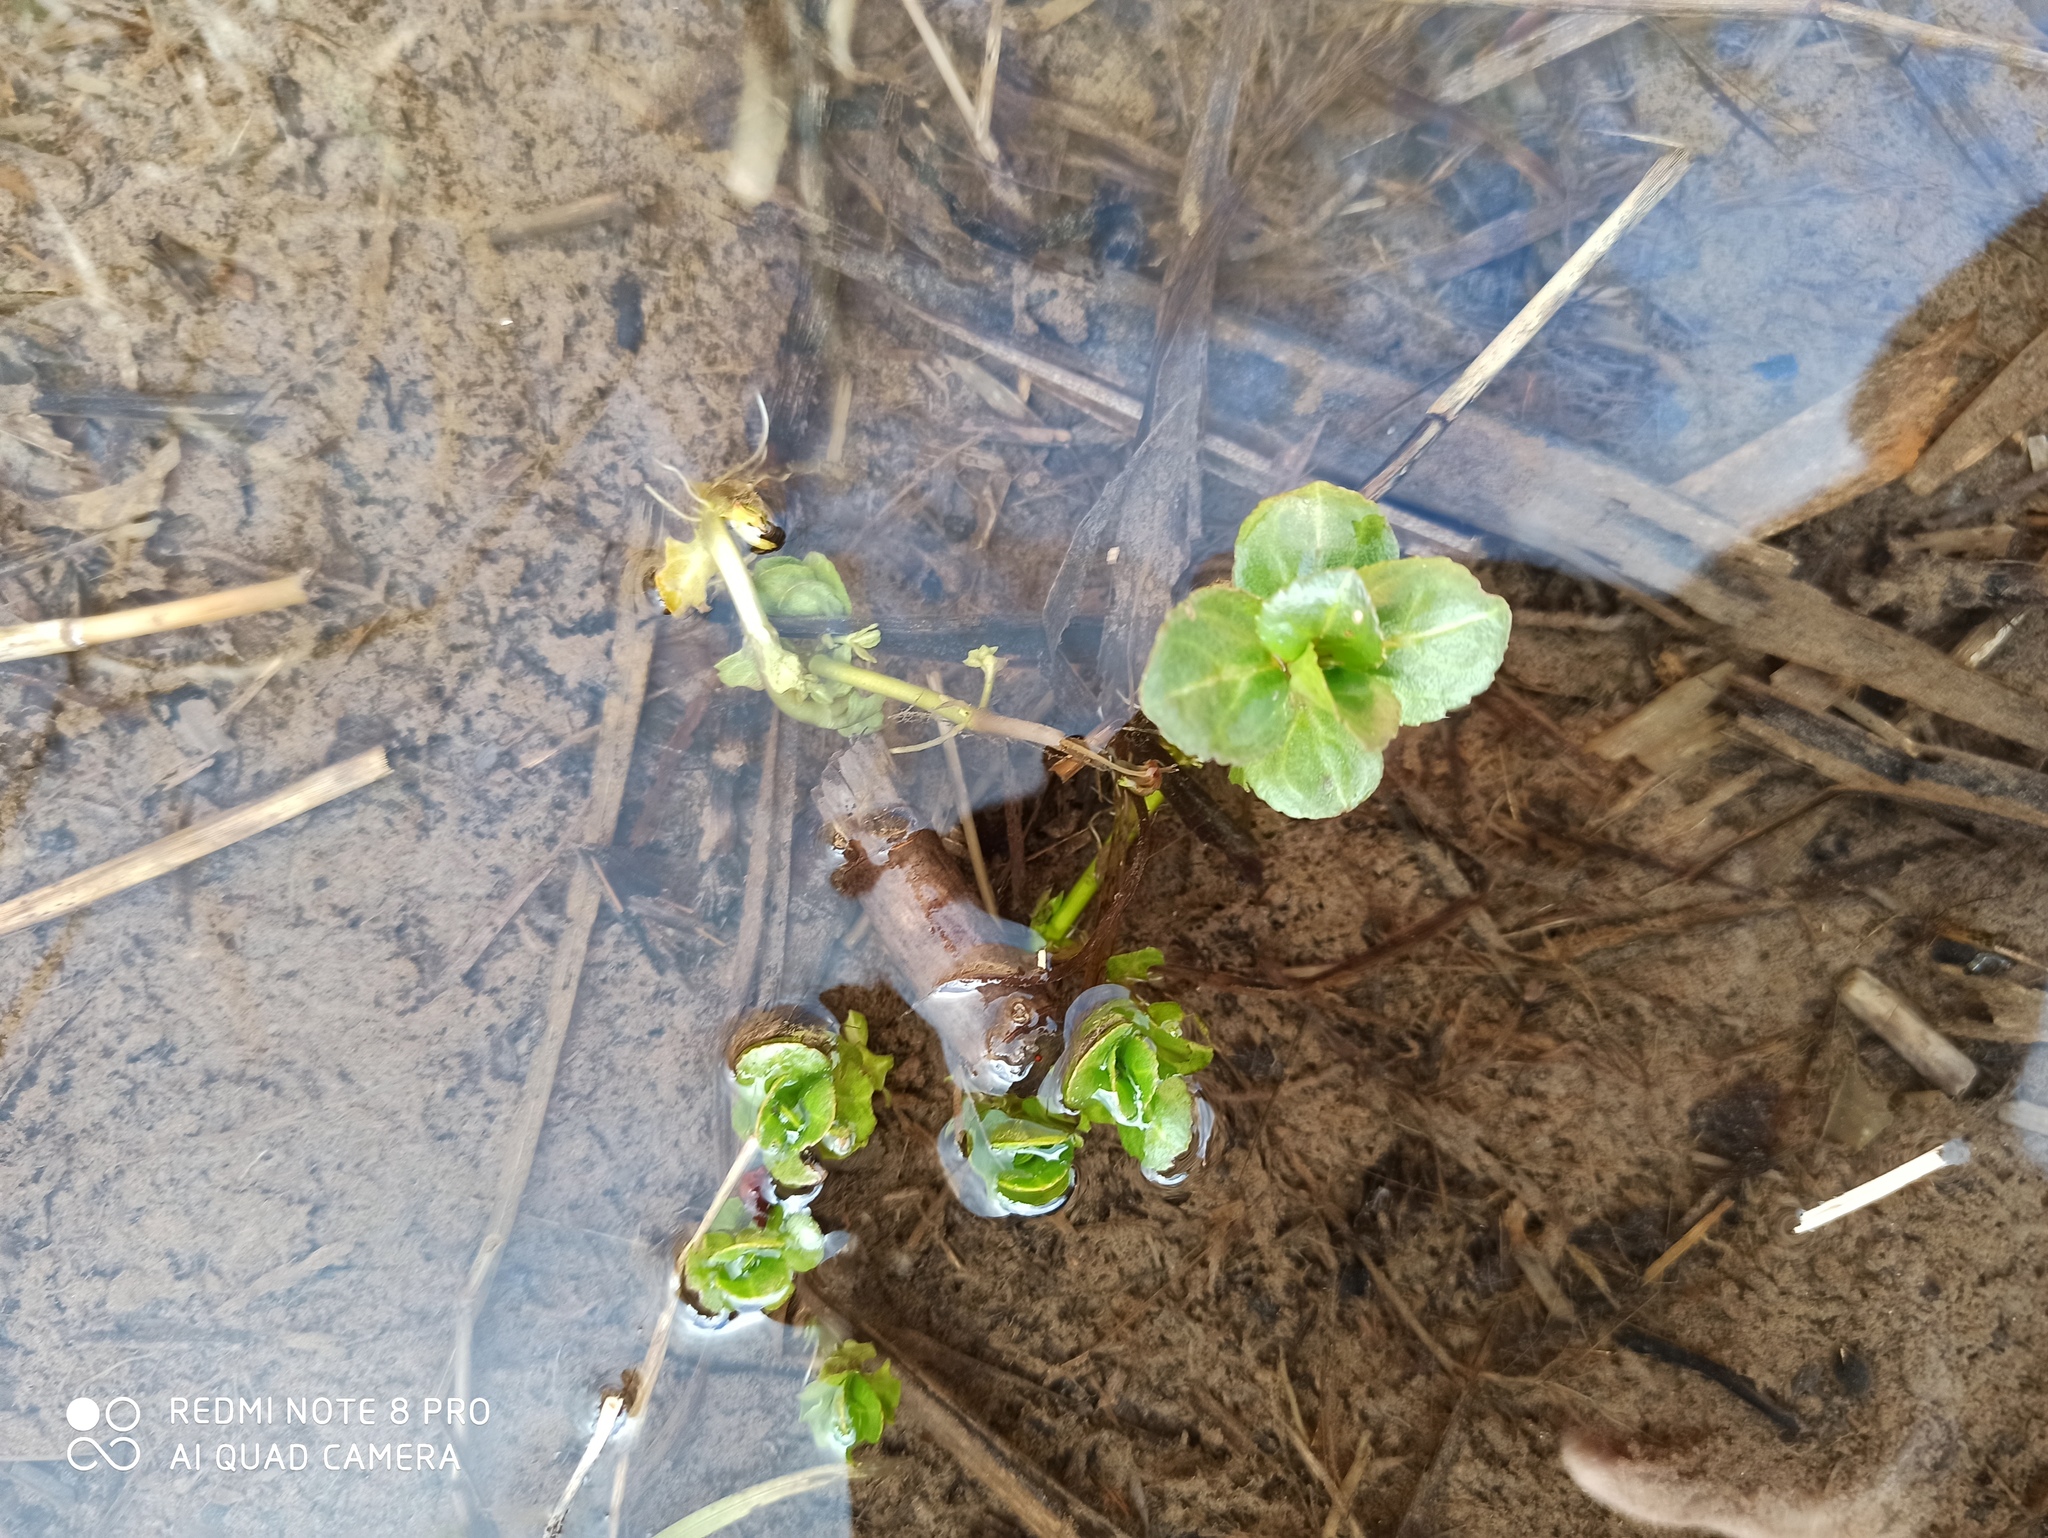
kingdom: Plantae
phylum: Tracheophyta
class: Magnoliopsida
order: Lamiales
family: Plantaginaceae
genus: Veronica
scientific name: Veronica beccabunga
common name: Brooklime
